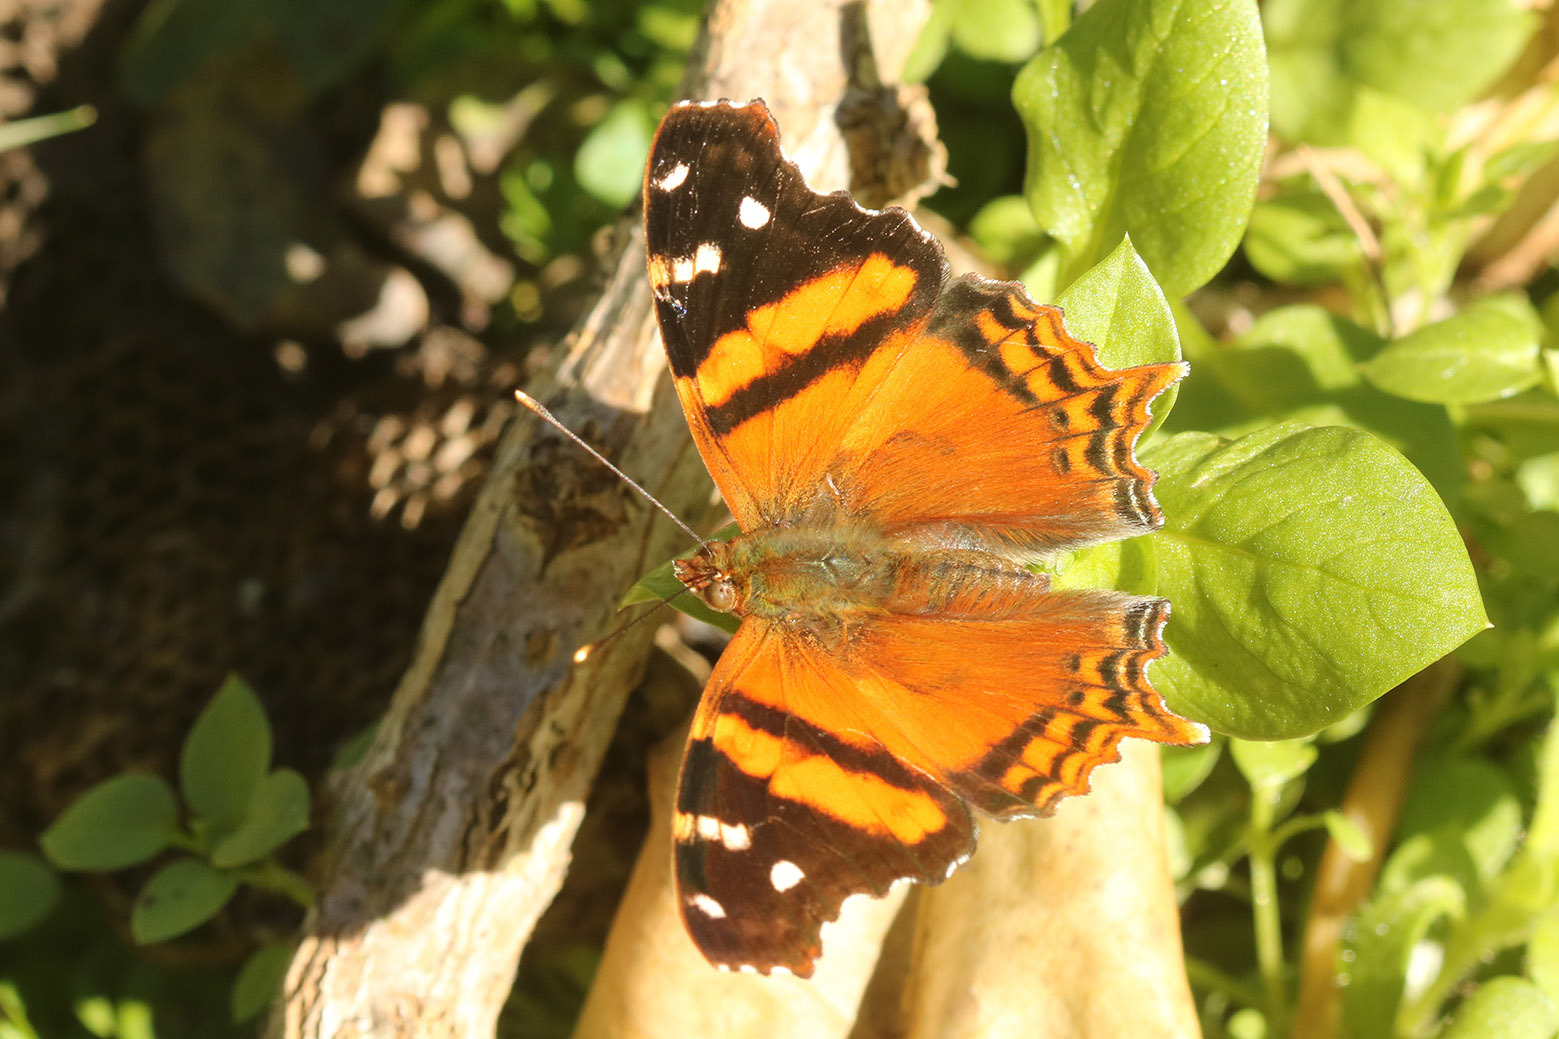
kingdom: Animalia
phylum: Arthropoda
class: Insecta
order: Lepidoptera
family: Nymphalidae
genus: Hypanartia
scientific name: Hypanartia bella
